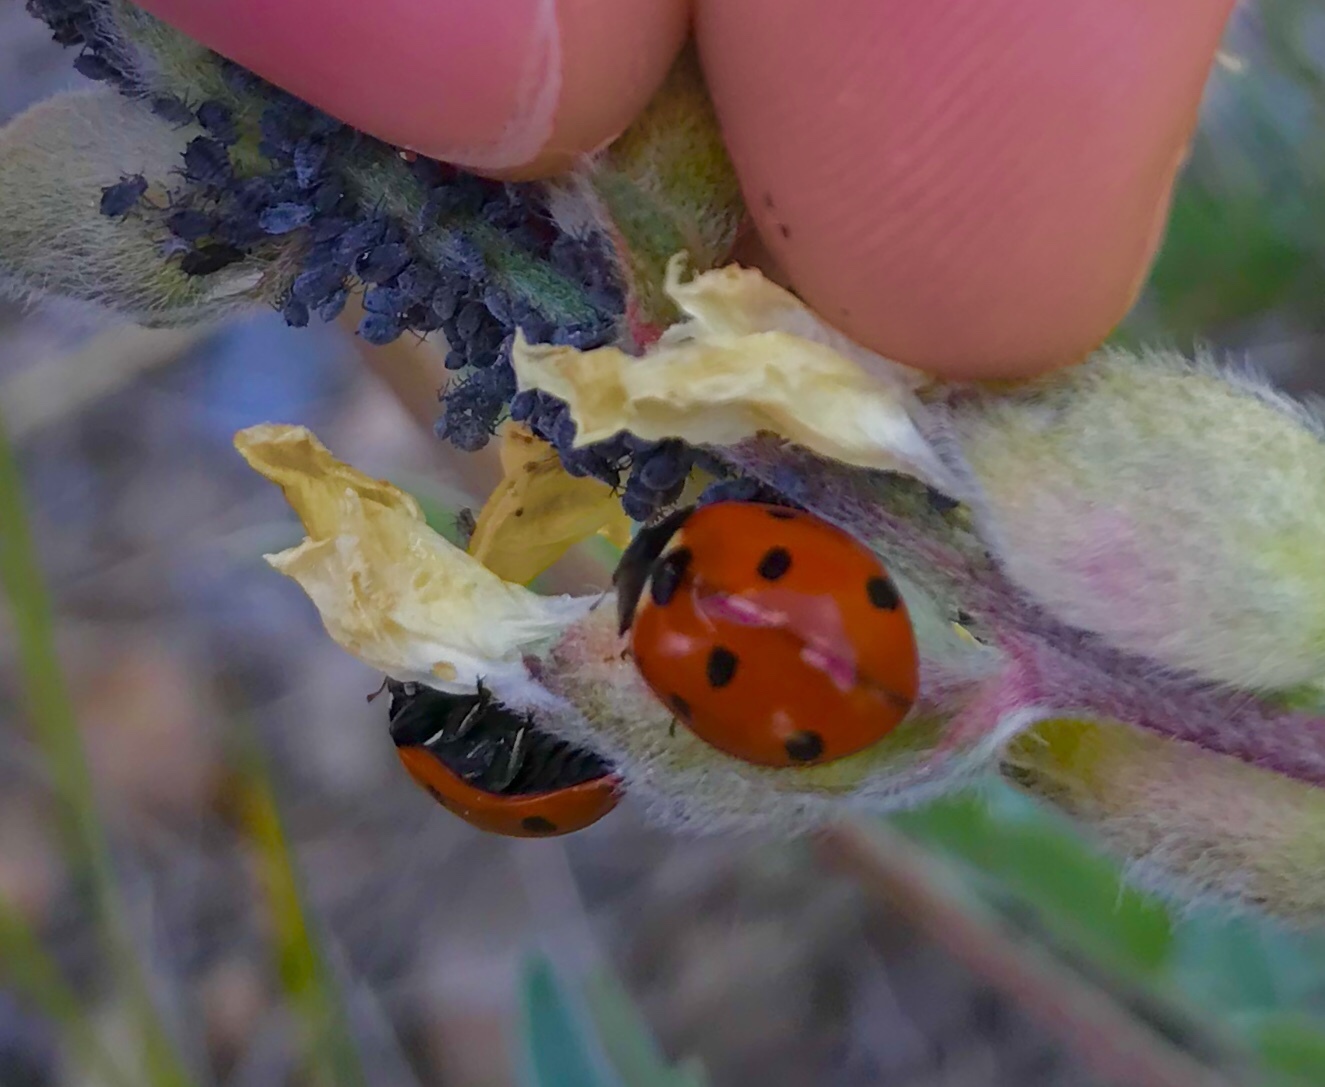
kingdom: Animalia
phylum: Arthropoda
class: Insecta
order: Coleoptera
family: Coccinellidae
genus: Coccinella
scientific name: Coccinella septempunctata
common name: Sevenspotted lady beetle
